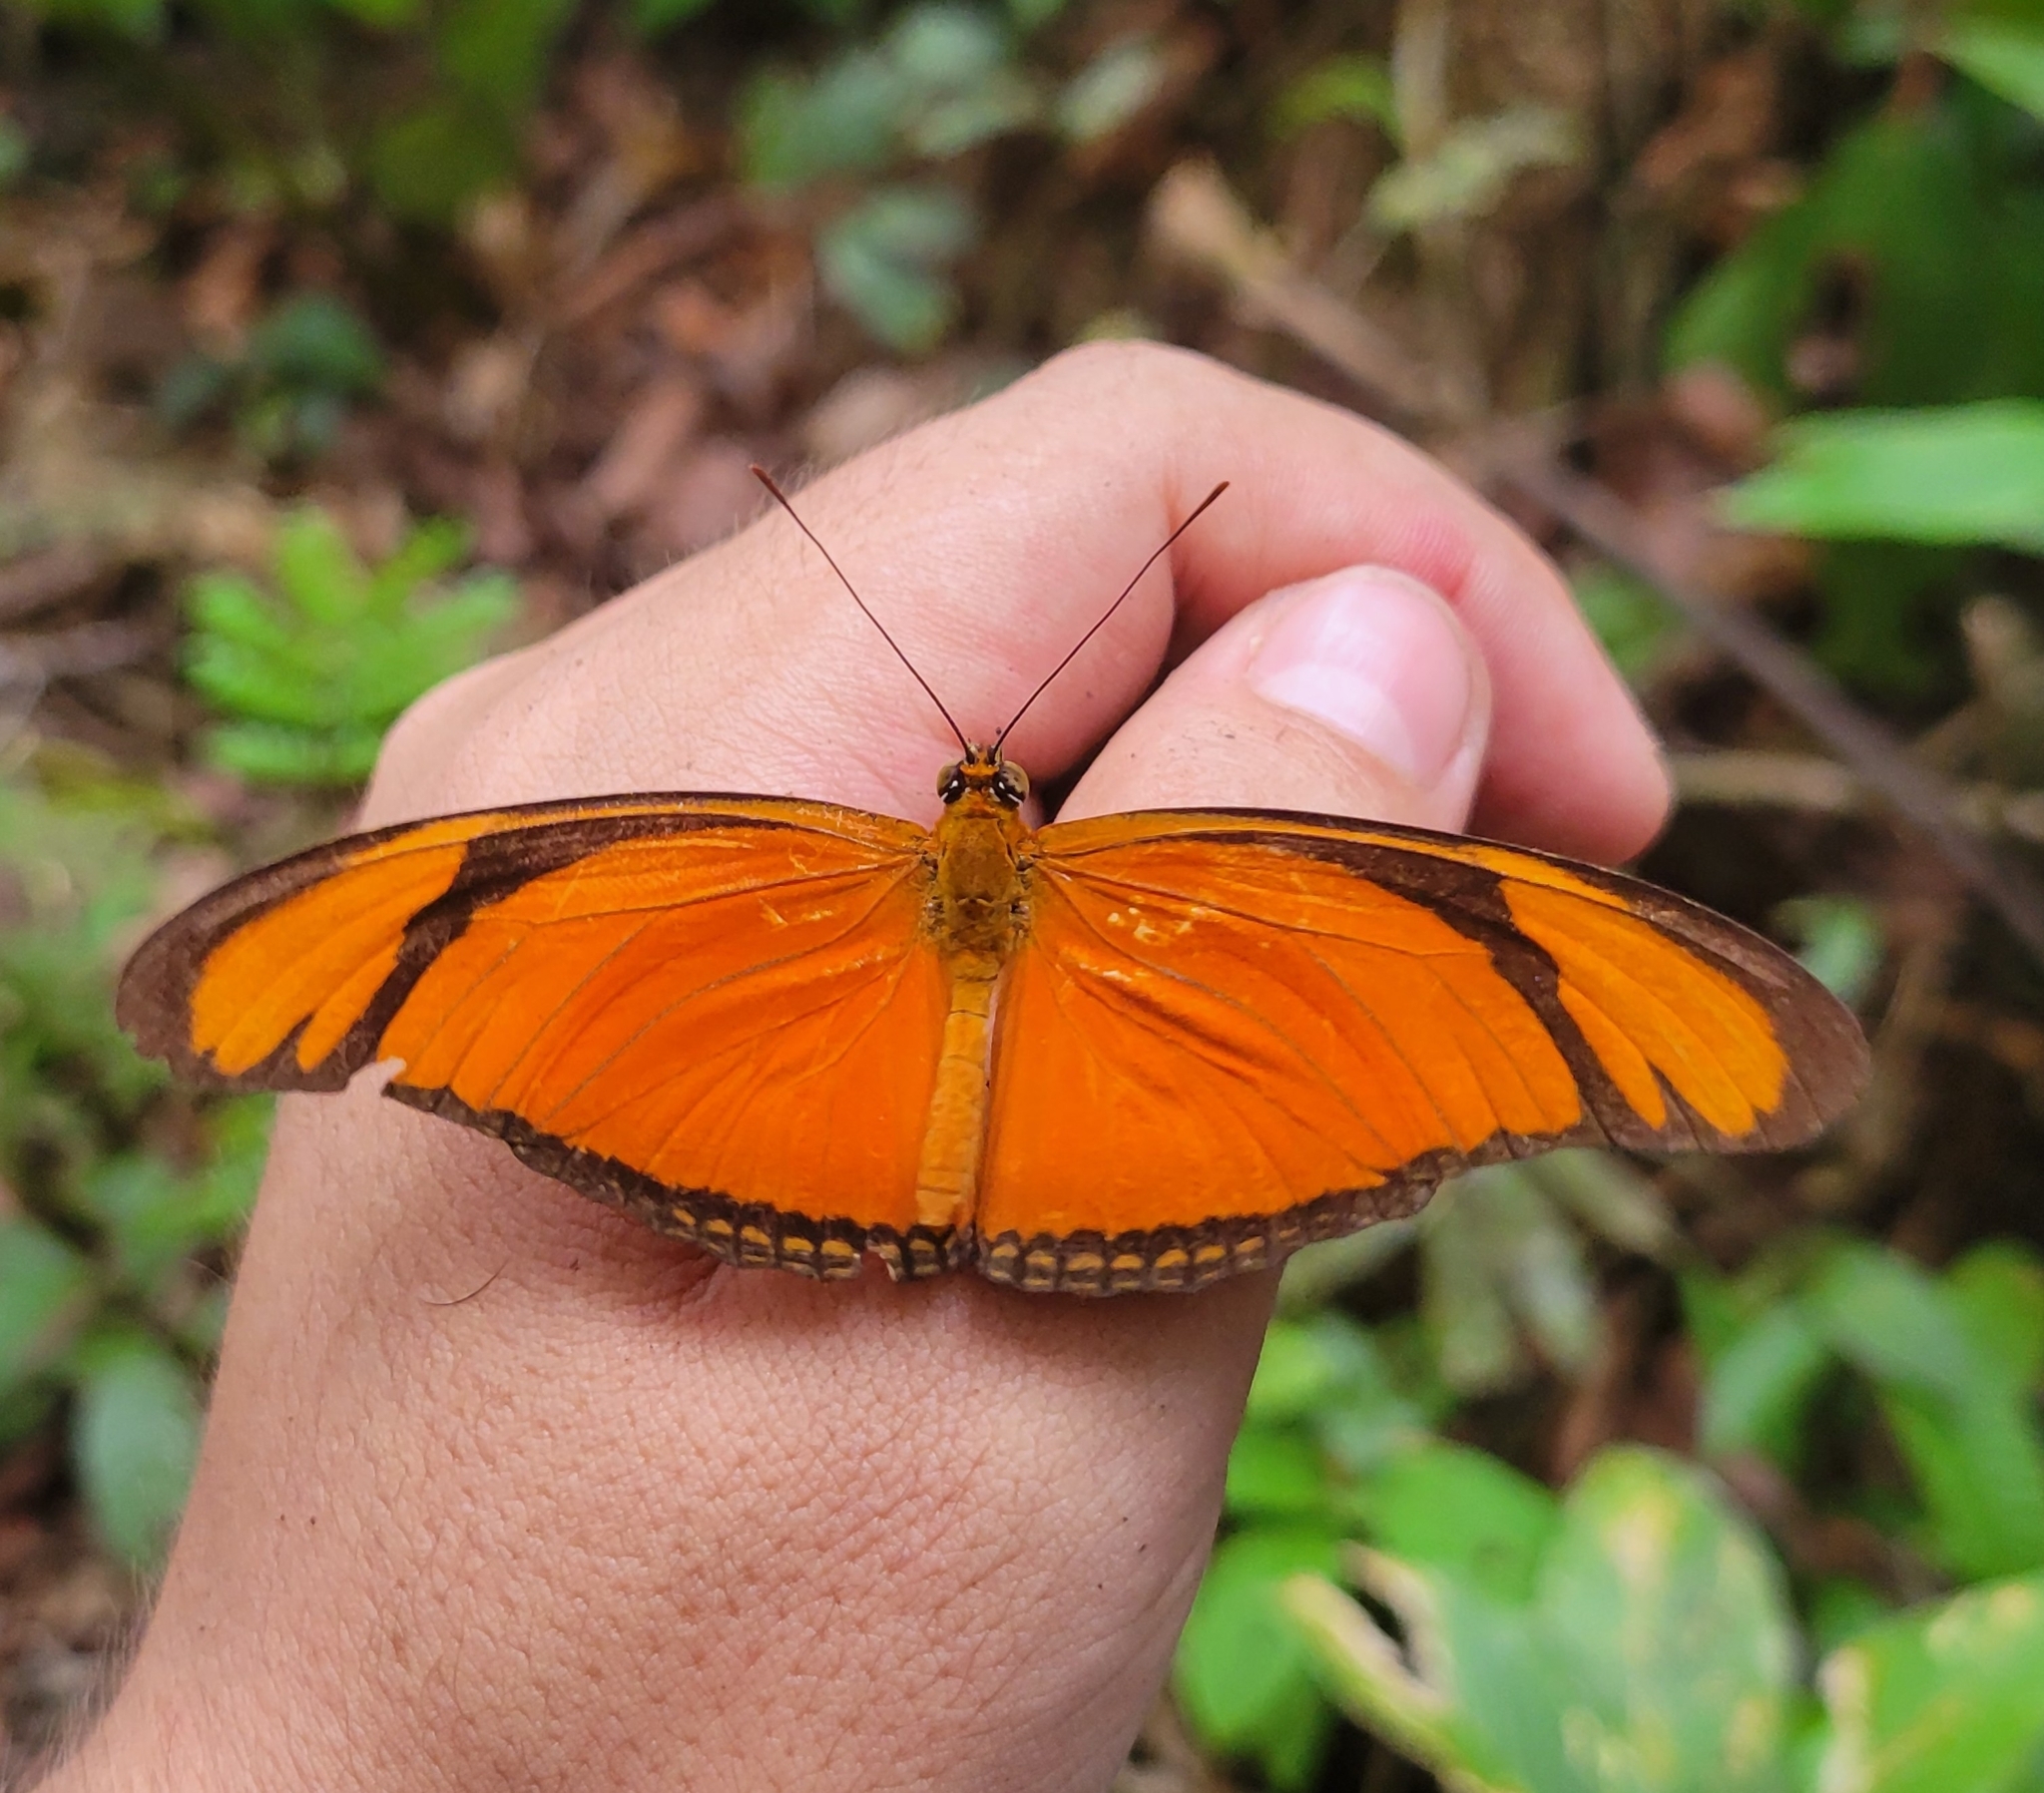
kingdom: Animalia
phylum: Arthropoda
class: Insecta
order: Lepidoptera
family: Nymphalidae
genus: Dryas
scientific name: Dryas iulia
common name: Flambeau
